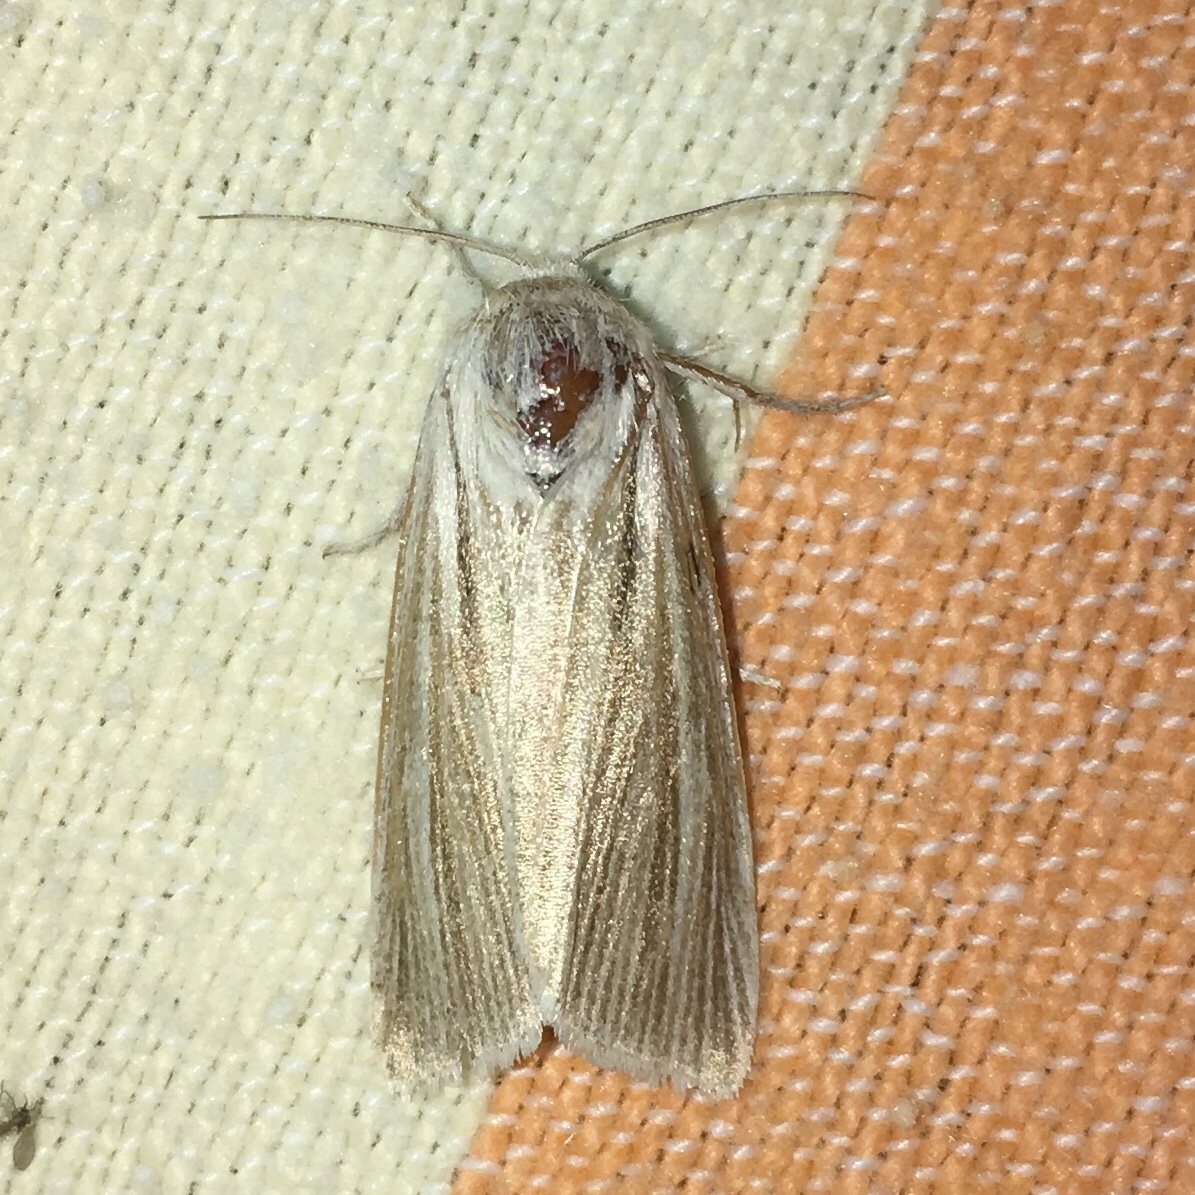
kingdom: Animalia
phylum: Arthropoda
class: Insecta
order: Lepidoptera
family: Noctuidae
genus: Acronicta
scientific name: Acronicta insularis
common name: Henry's marsh moth
